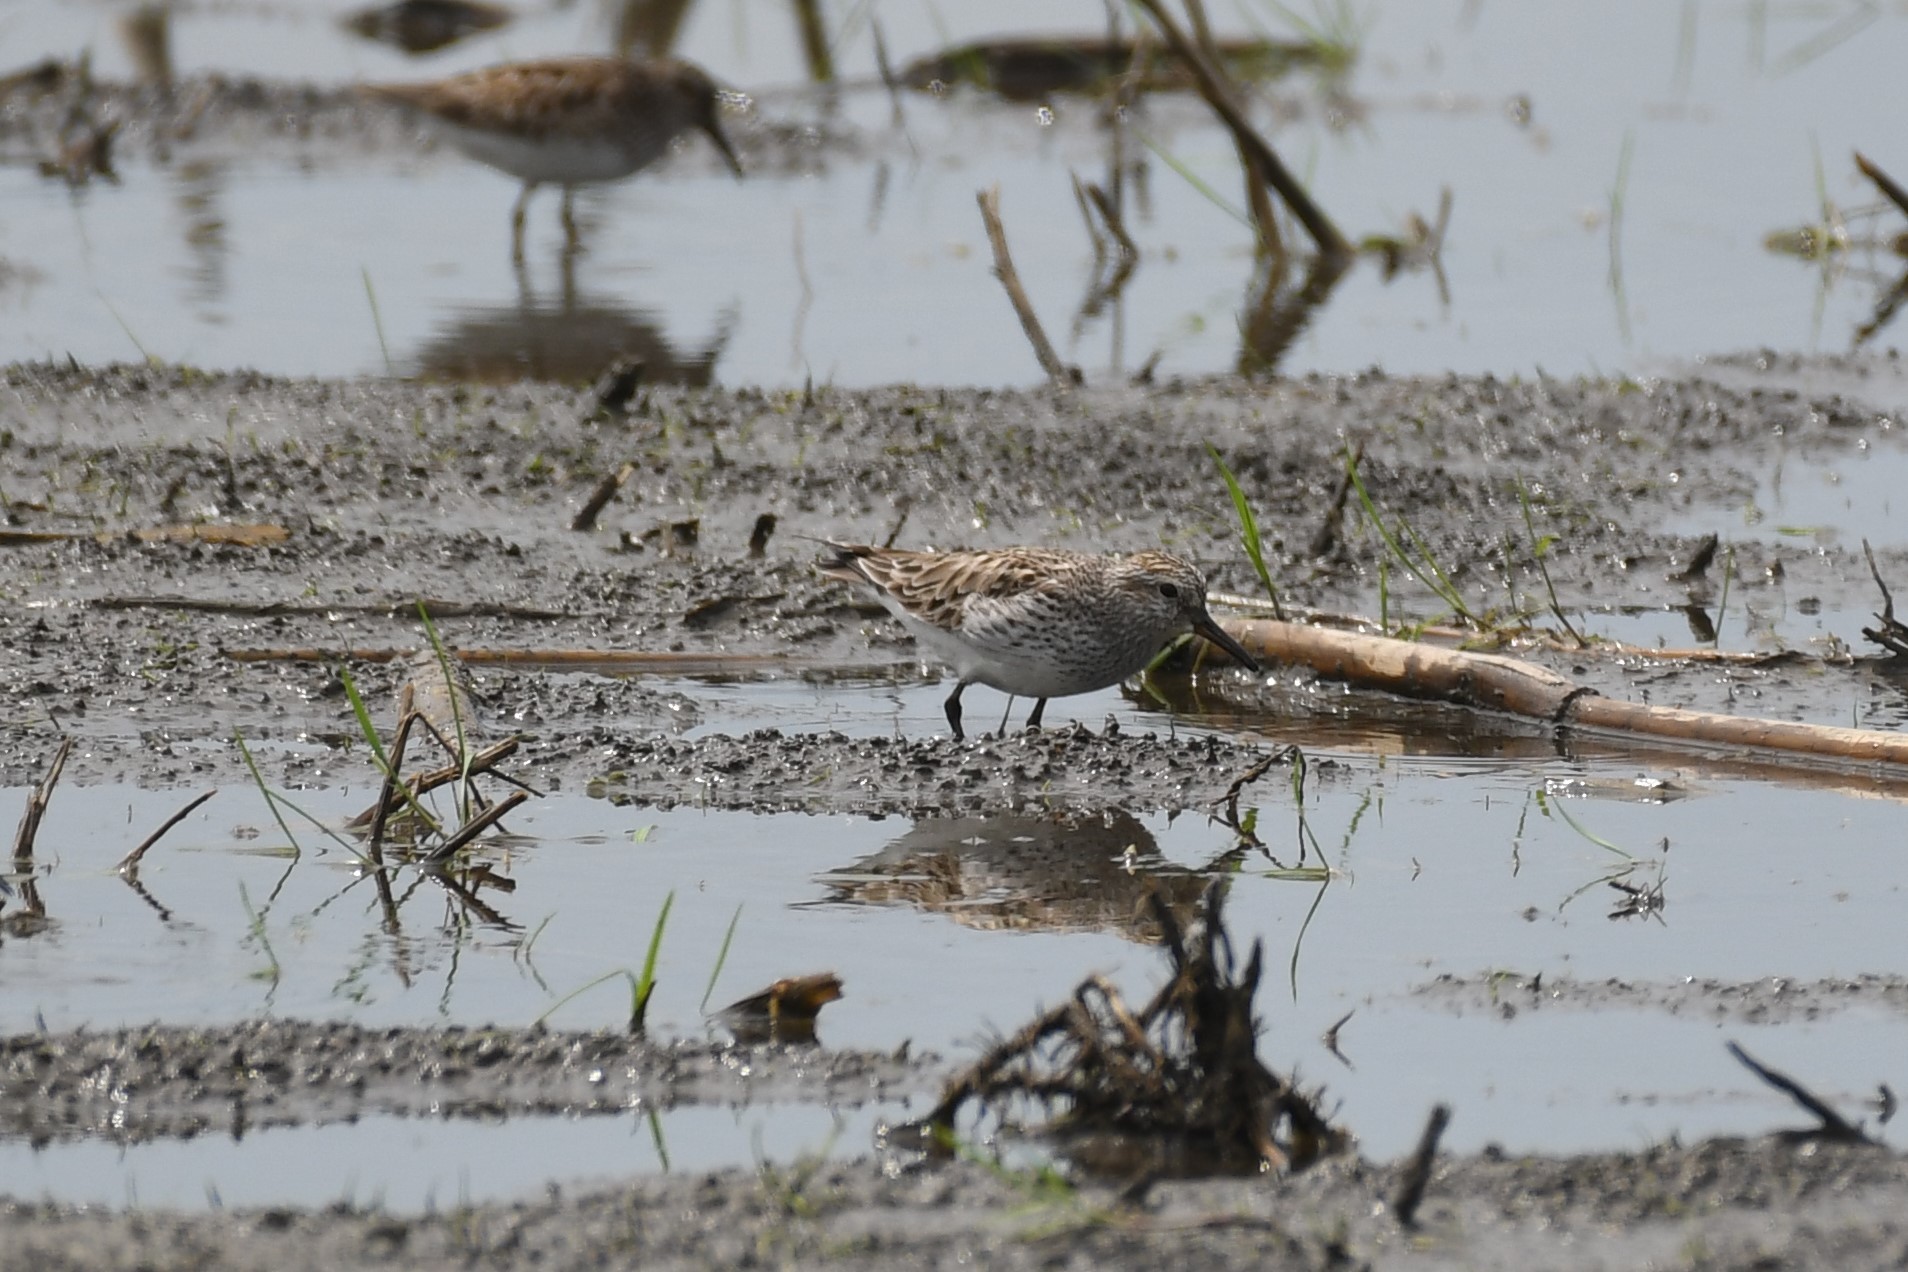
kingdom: Animalia
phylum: Chordata
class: Aves
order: Charadriiformes
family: Scolopacidae
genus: Calidris
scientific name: Calidris fuscicollis
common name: White-rumped sandpiper
